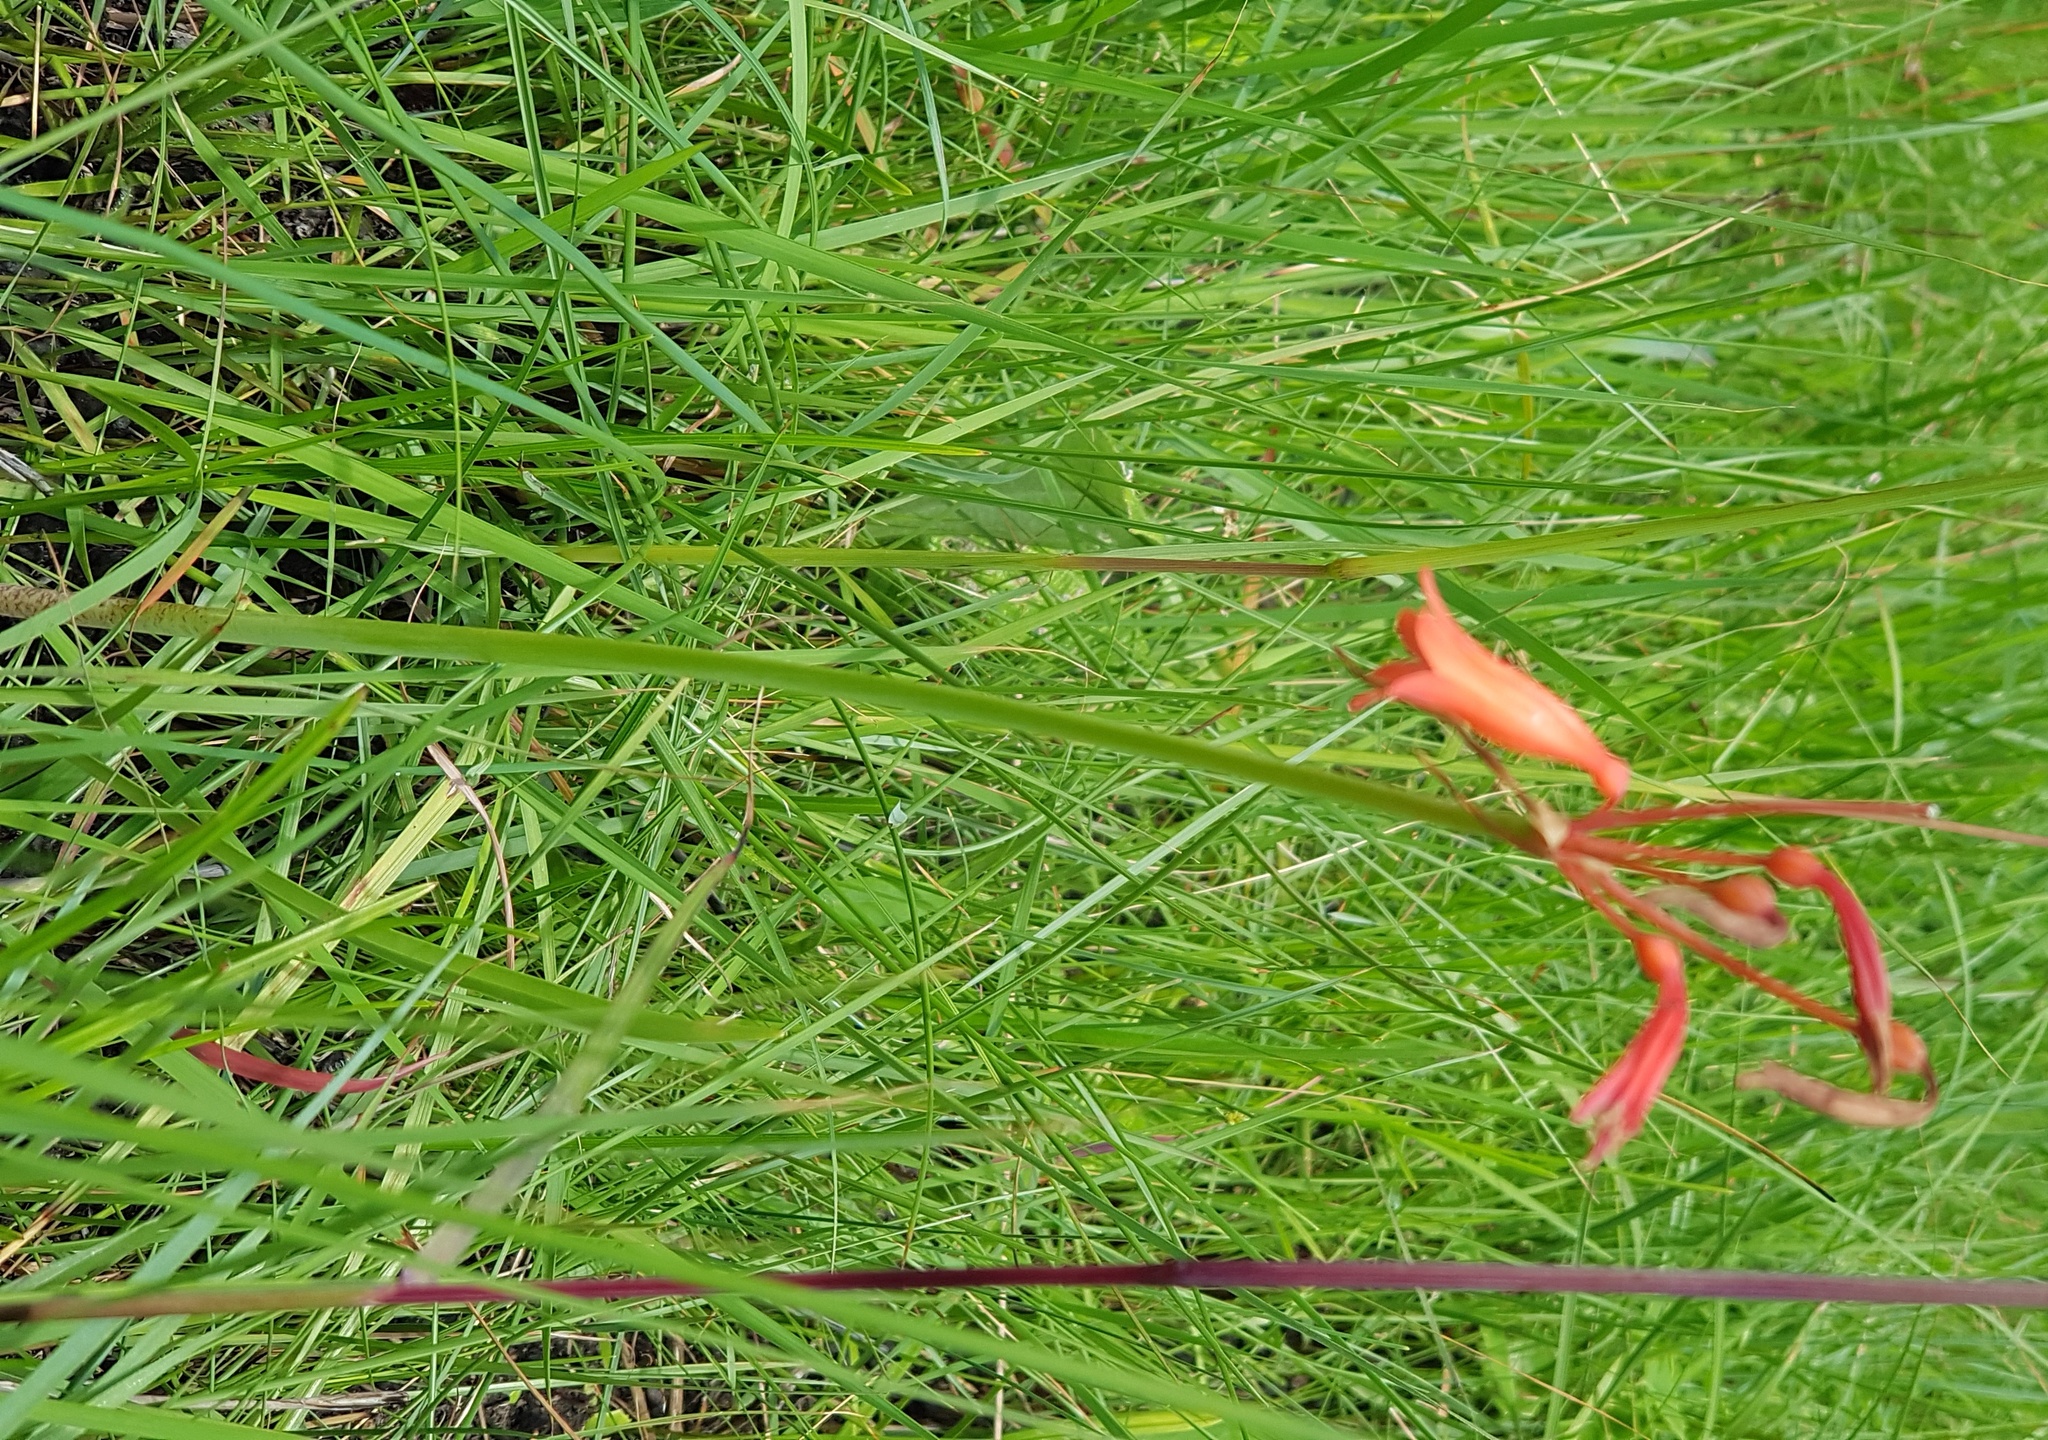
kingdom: Plantae
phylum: Tracheophyta
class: Liliopsida
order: Asparagales
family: Amaryllidaceae
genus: Cyrtanthus
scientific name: Cyrtanthus brachyscyphus
